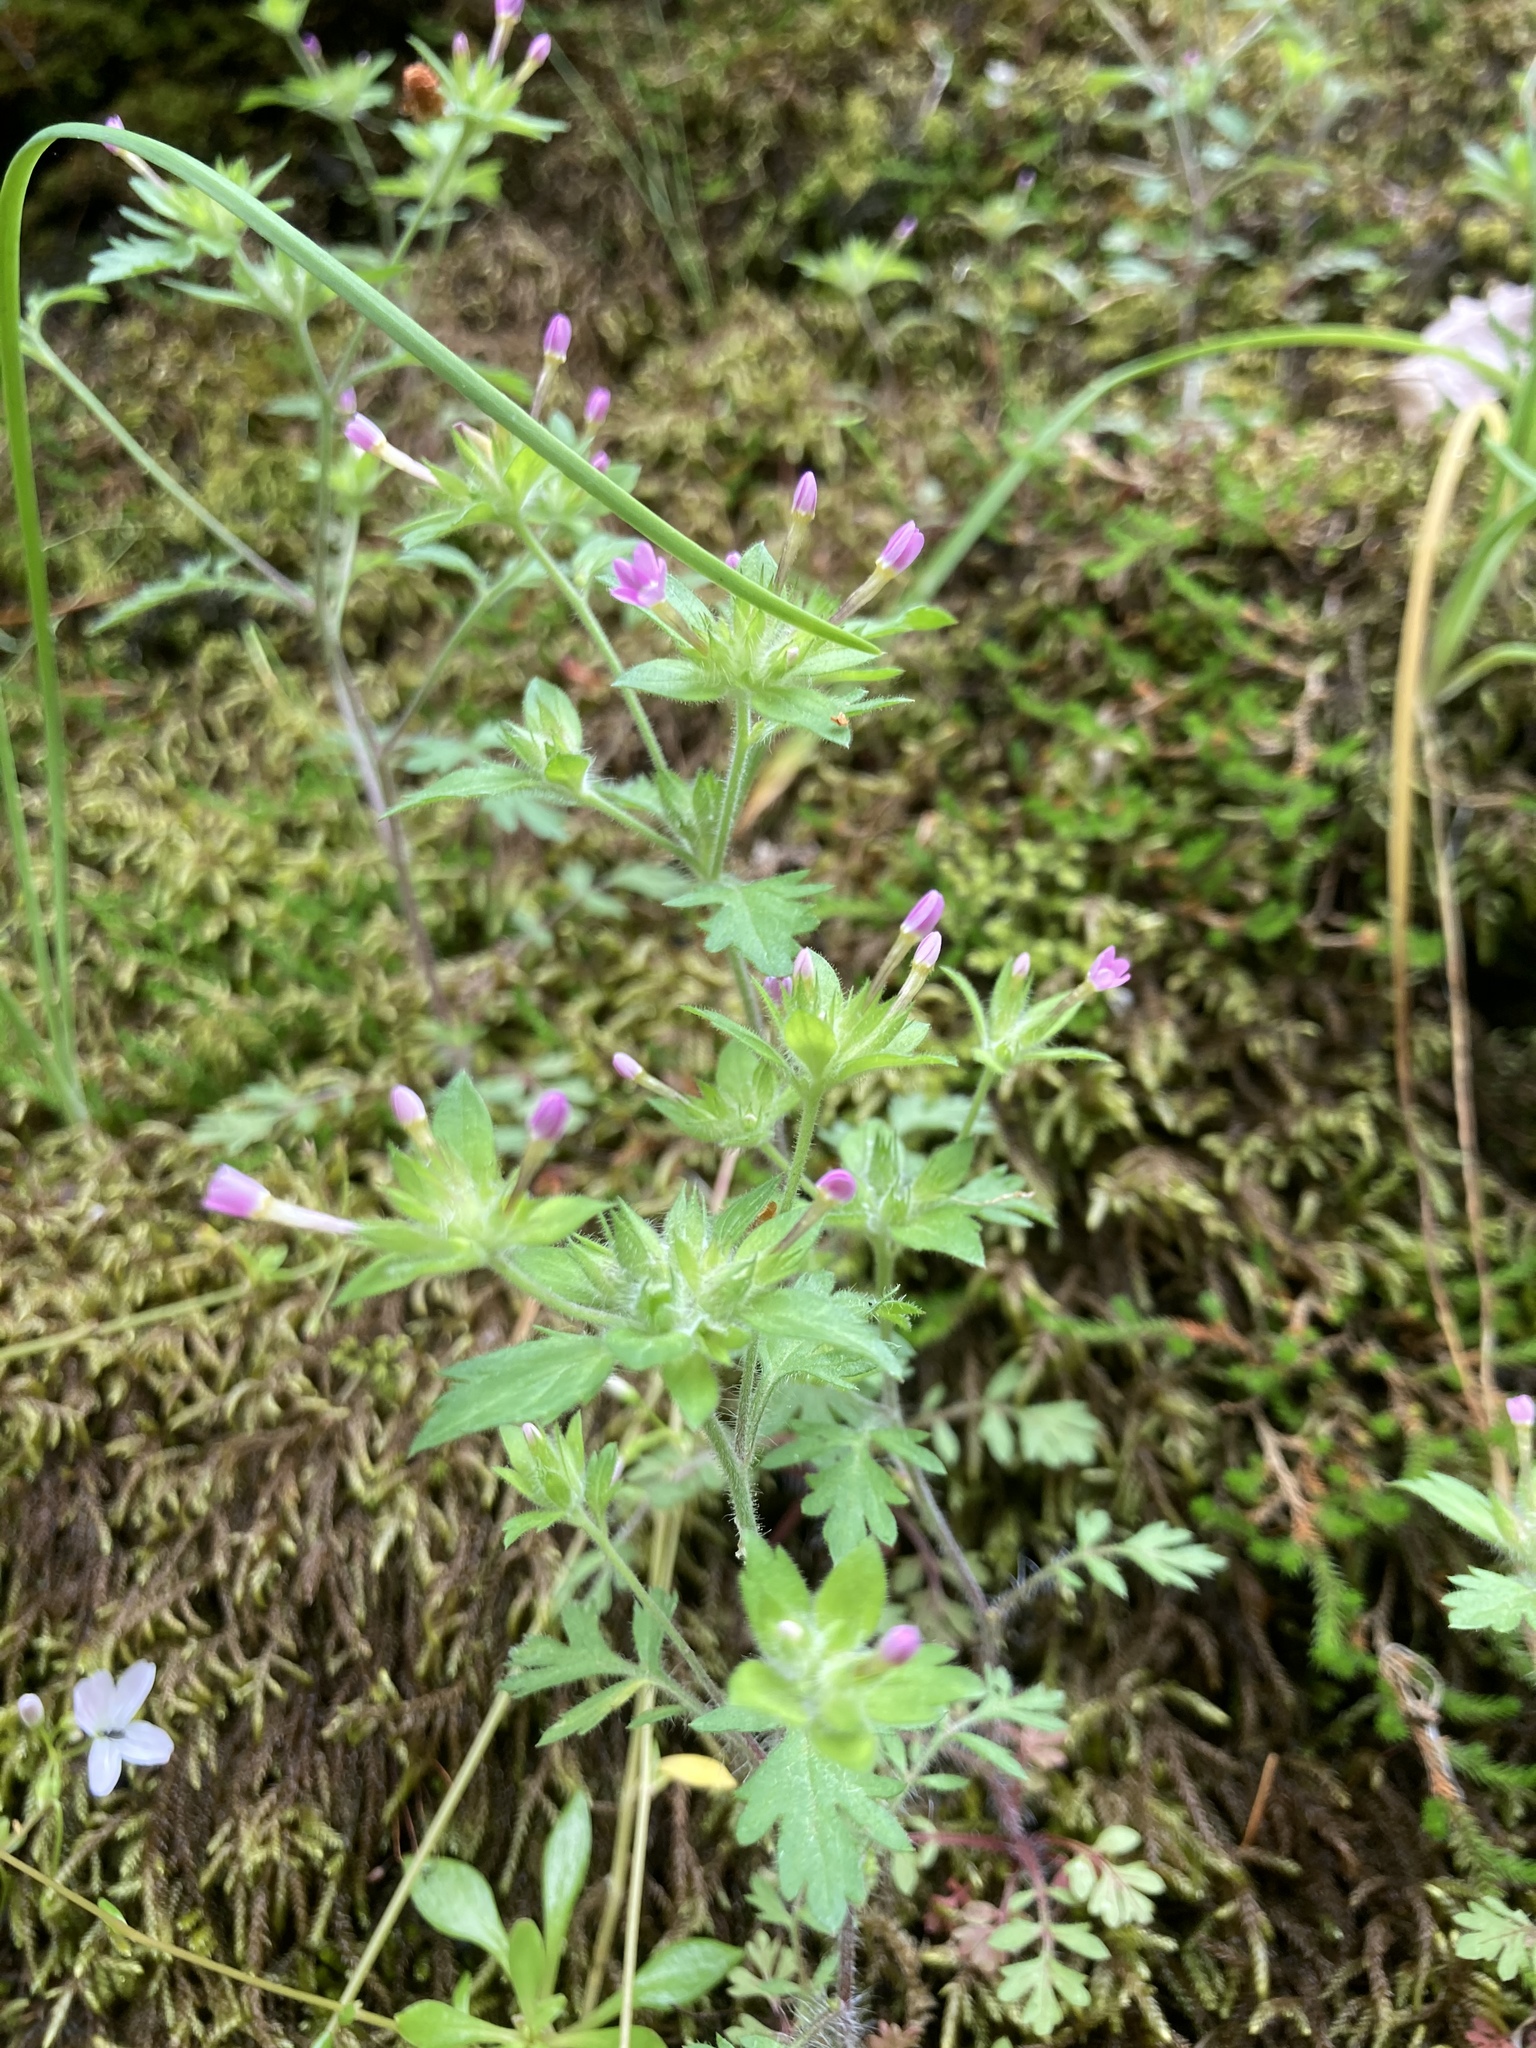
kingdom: Plantae
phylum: Tracheophyta
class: Magnoliopsida
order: Ericales
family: Polemoniaceae
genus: Collomia
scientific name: Collomia heterophylla
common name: Variable-leaved collomia
